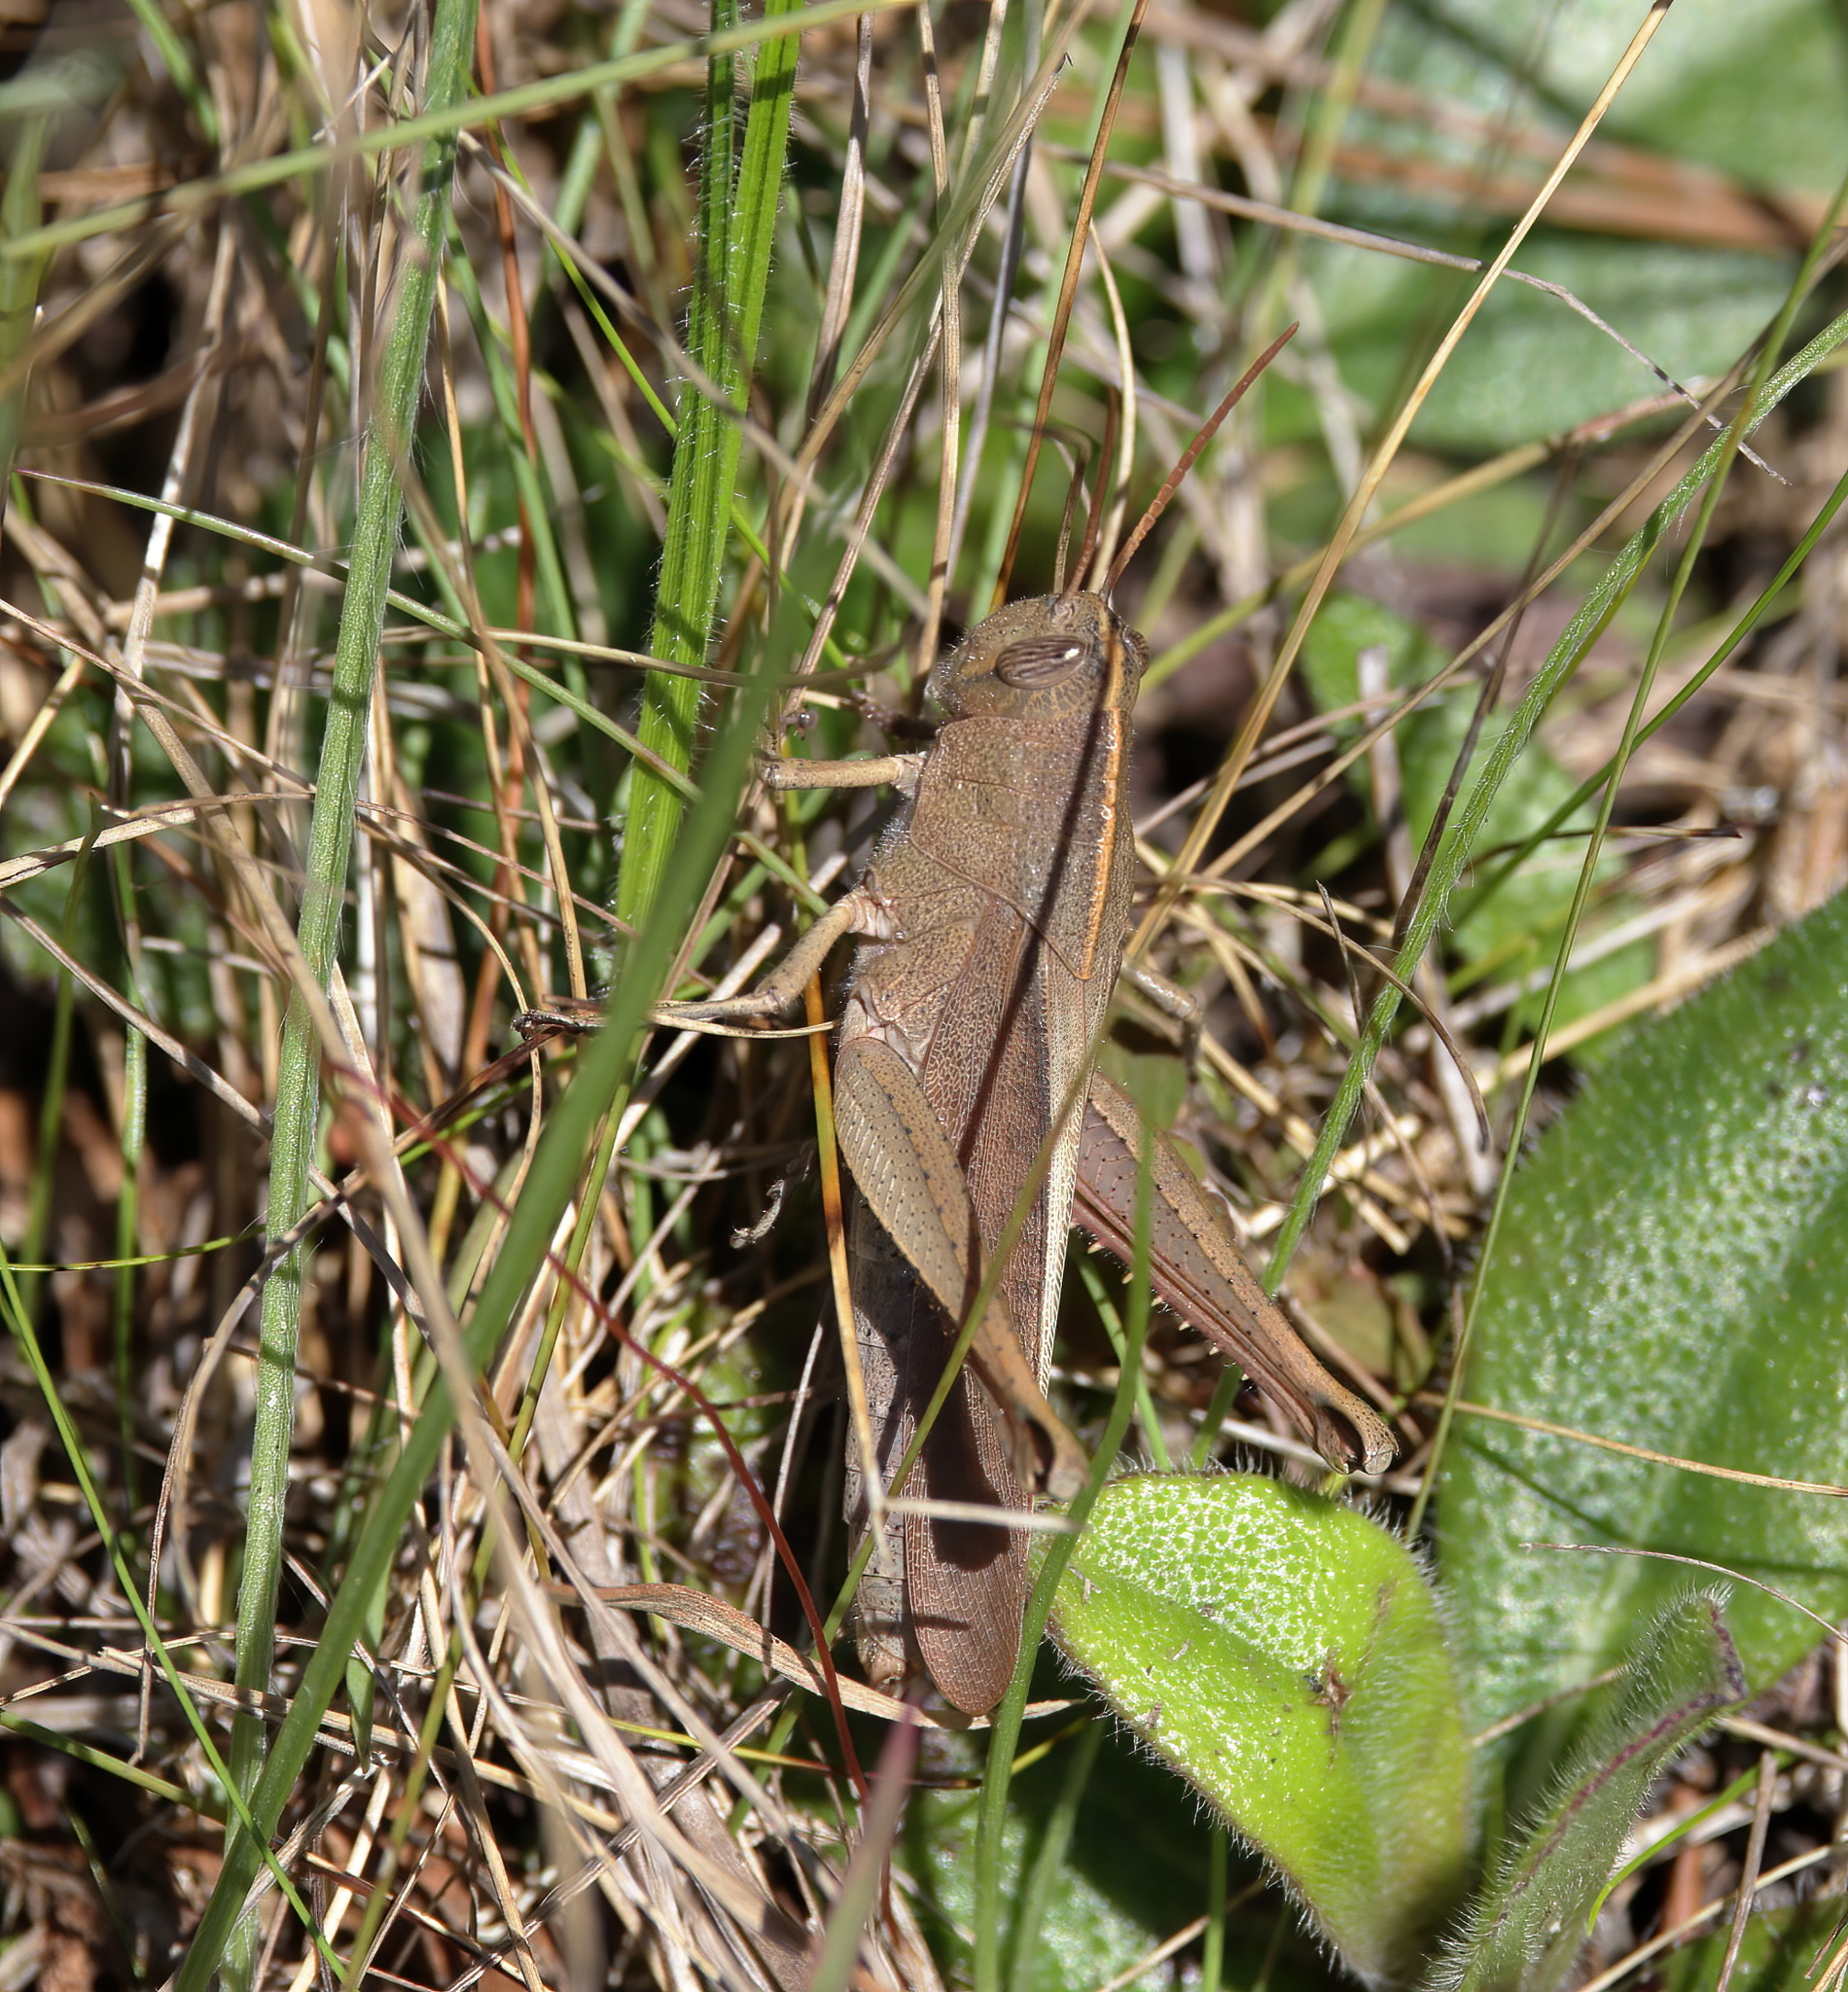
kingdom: Animalia
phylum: Arthropoda
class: Insecta
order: Orthoptera
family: Acrididae
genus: Schistocerca
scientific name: Schistocerca damnifica
